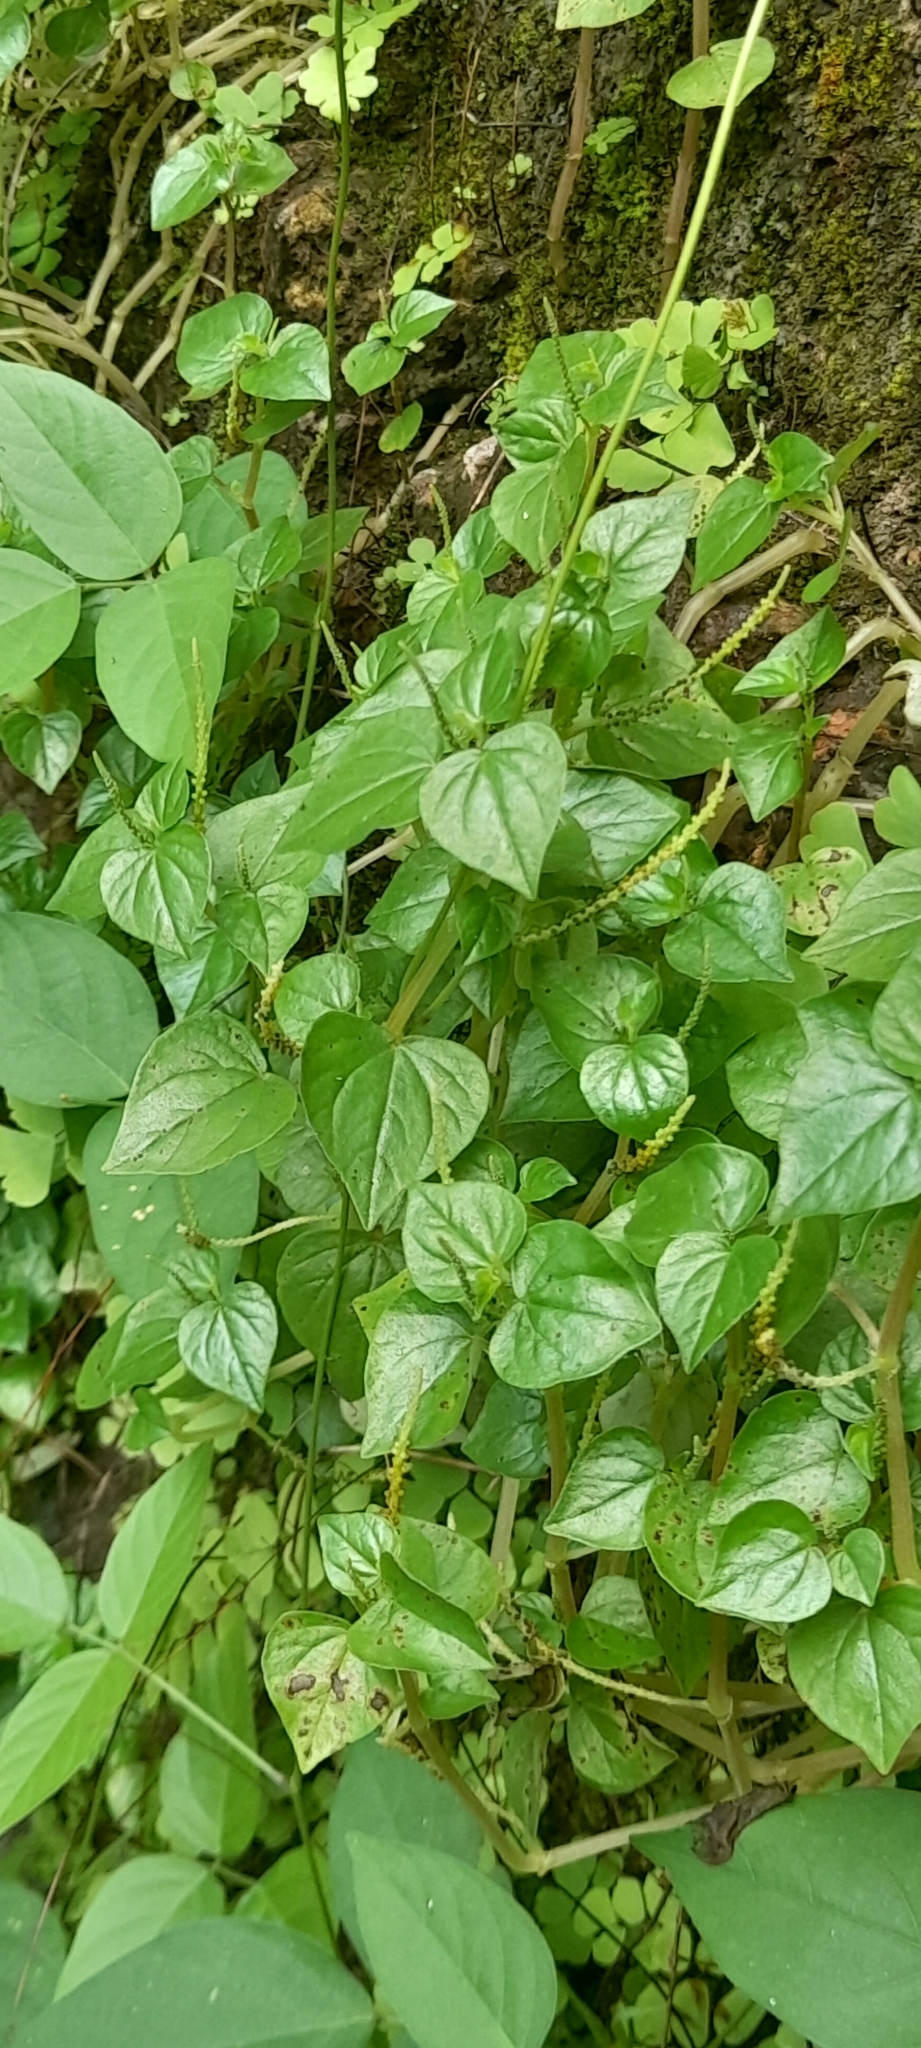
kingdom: Plantae
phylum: Tracheophyta
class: Magnoliopsida
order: Piperales
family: Piperaceae
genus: Peperomia
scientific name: Peperomia pellucida
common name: Man to man
